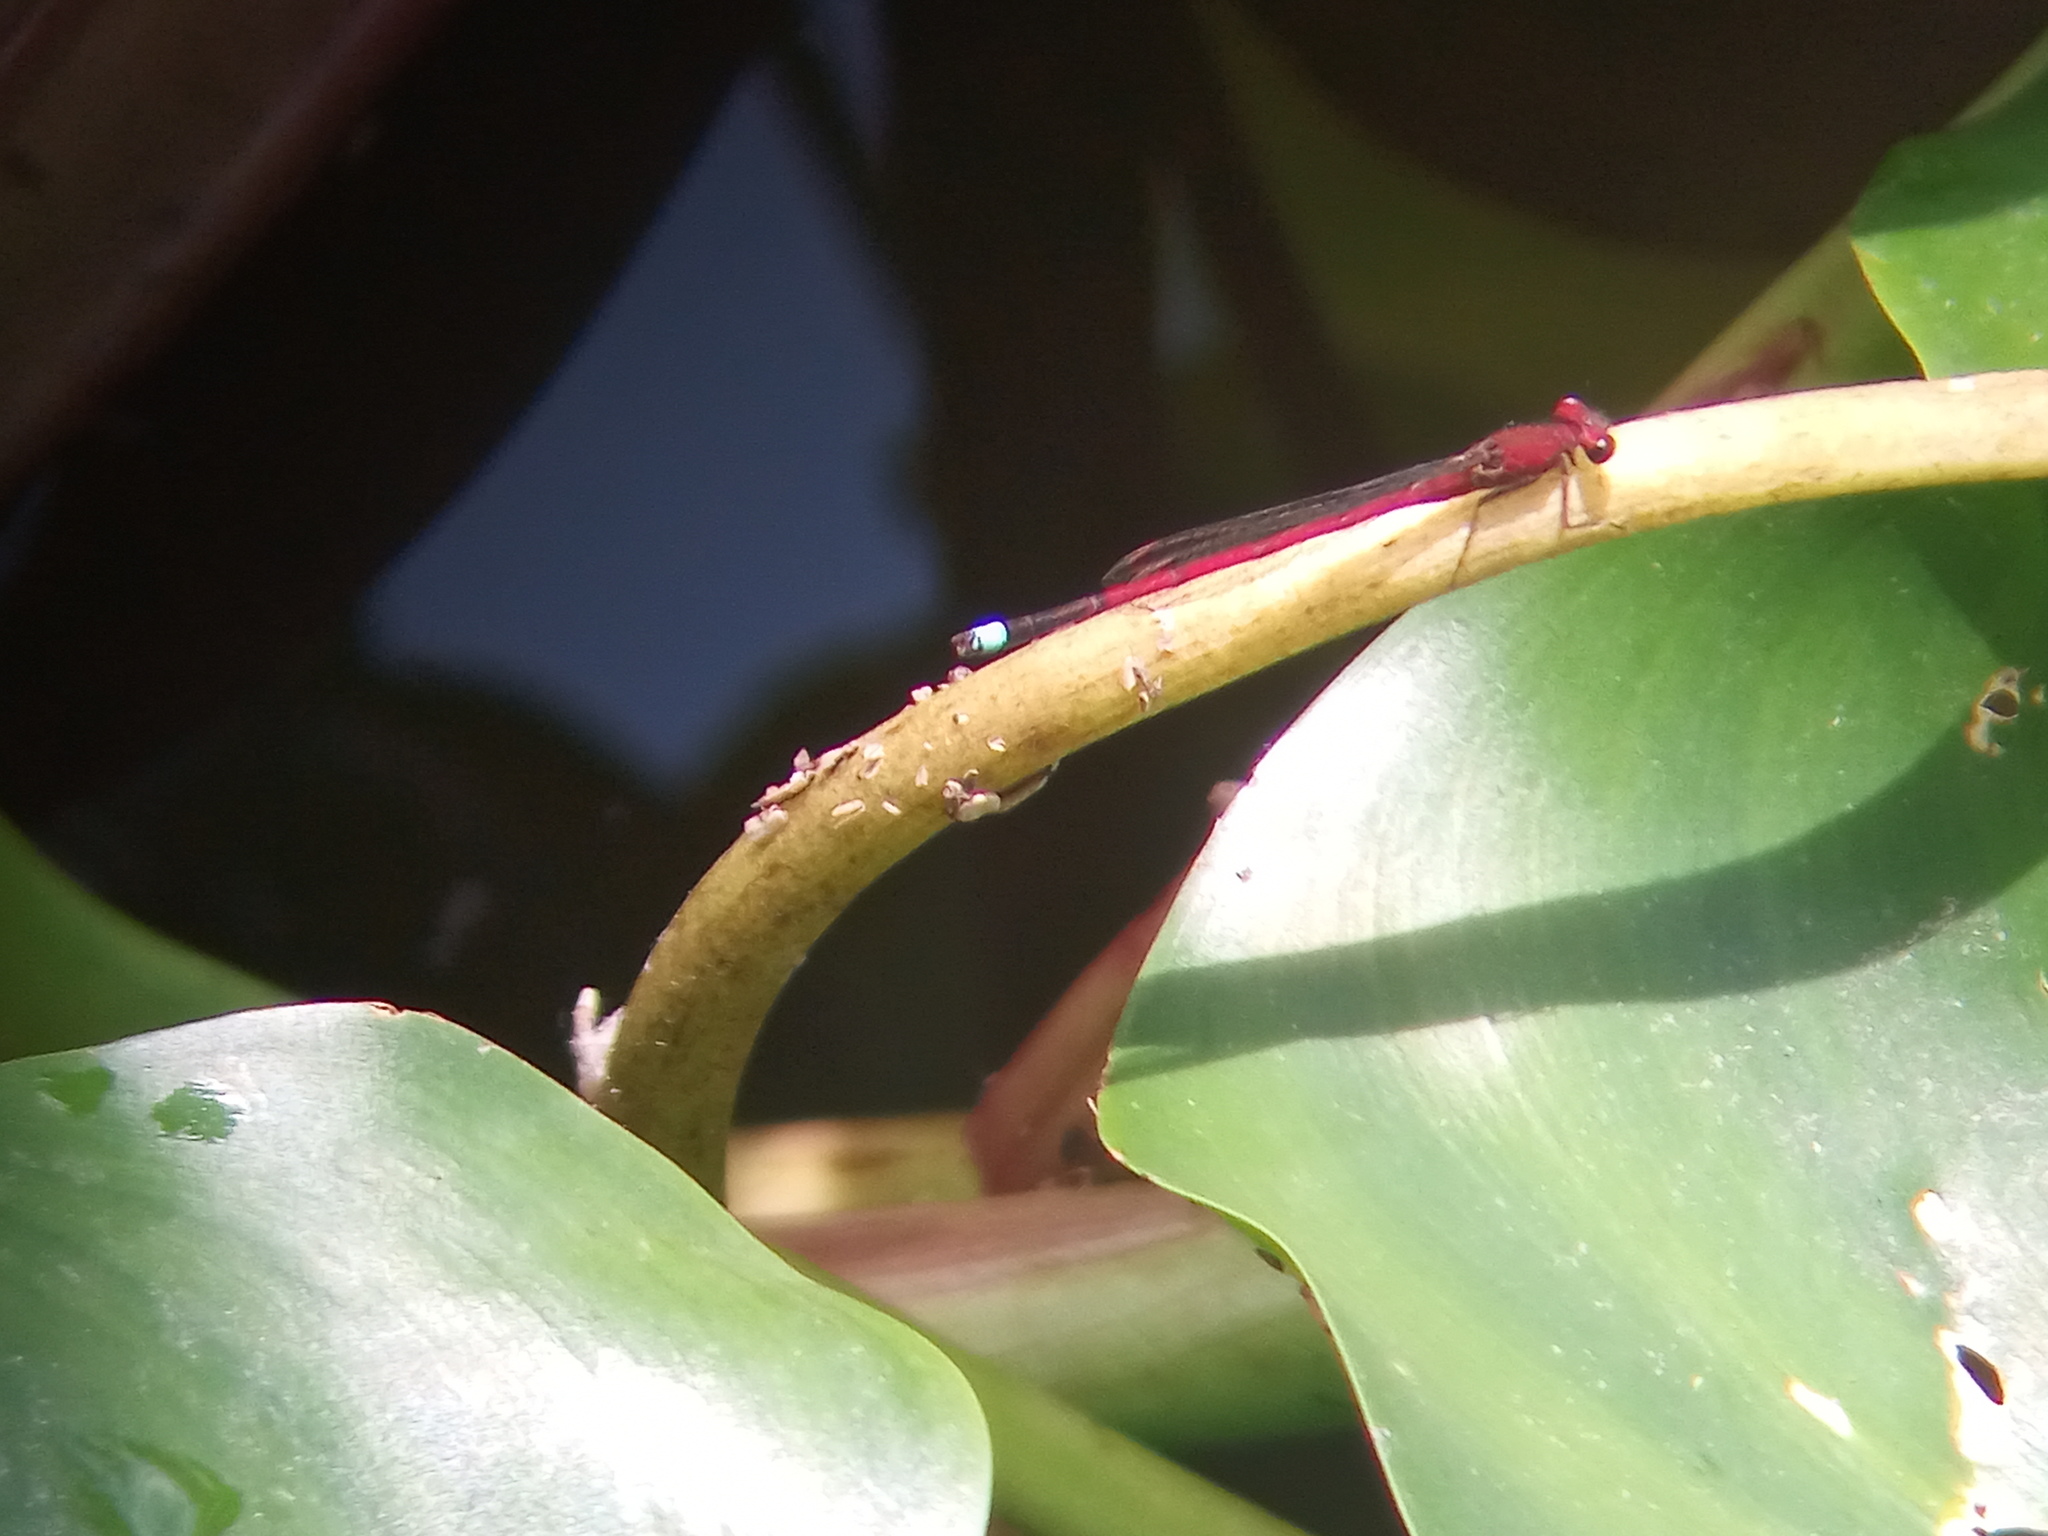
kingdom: Animalia
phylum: Arthropoda
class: Insecta
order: Odonata
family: Coenagrionidae
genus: Oxyagrion
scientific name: Oxyagrion terminale
